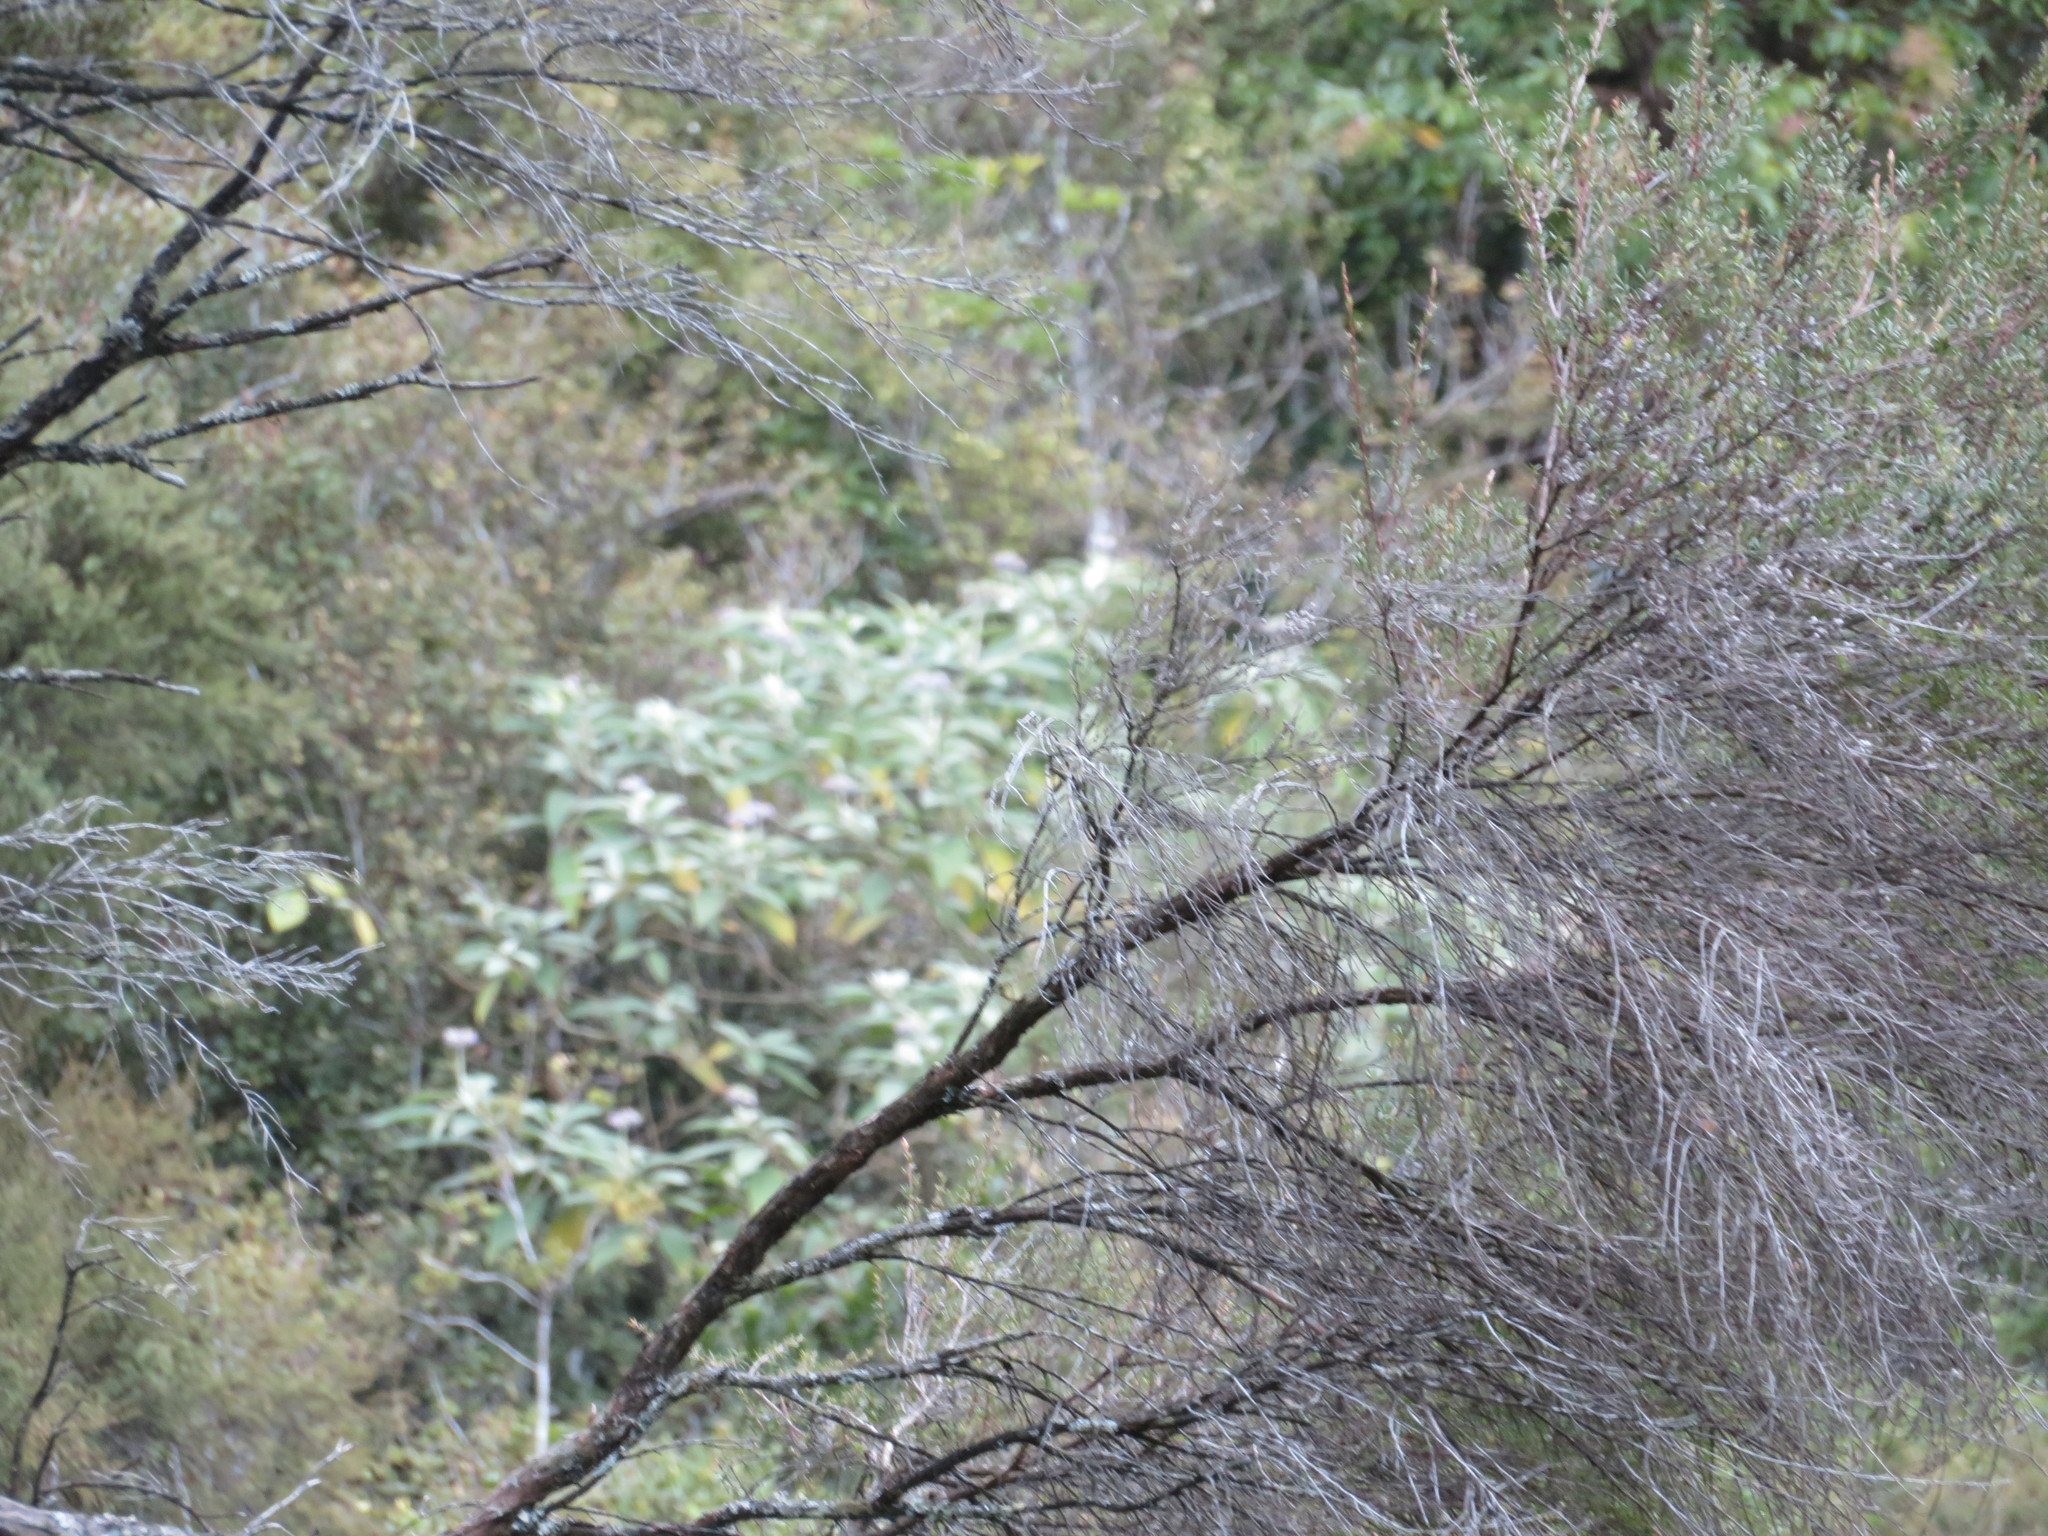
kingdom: Plantae
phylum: Tracheophyta
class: Magnoliopsida
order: Solanales
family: Solanaceae
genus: Solanum
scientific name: Solanum mauritianum
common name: Earleaf nightshade
